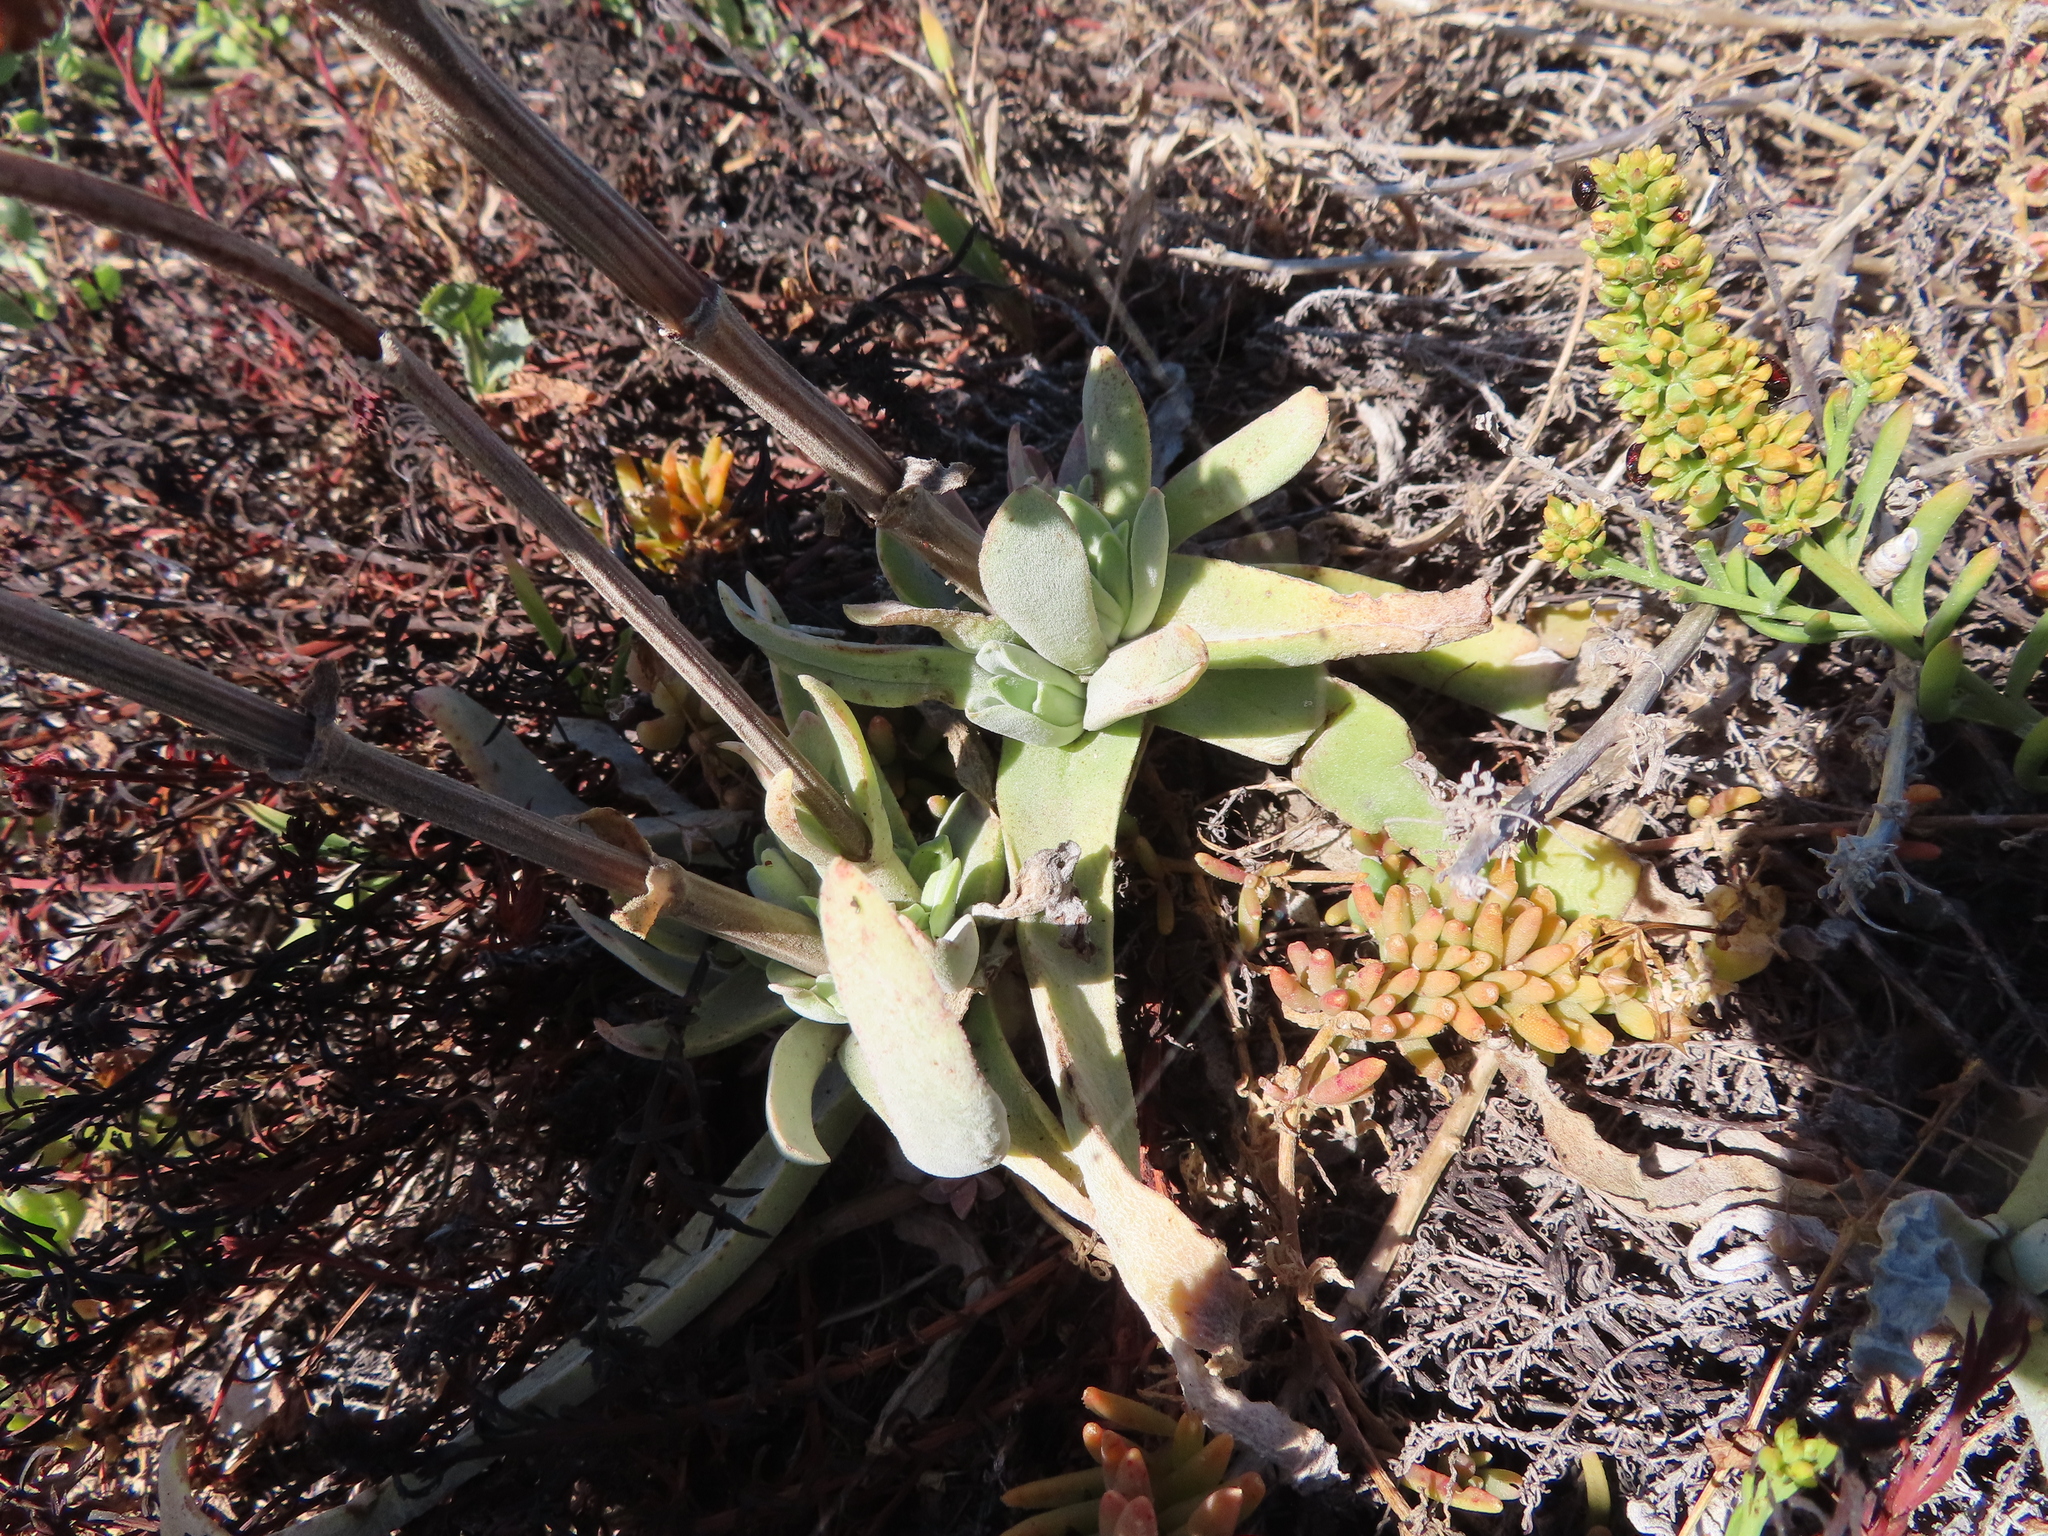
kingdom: Plantae
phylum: Tracheophyta
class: Magnoliopsida
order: Saxifragales
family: Crassulaceae
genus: Crassula
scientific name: Crassula nudicaulis
